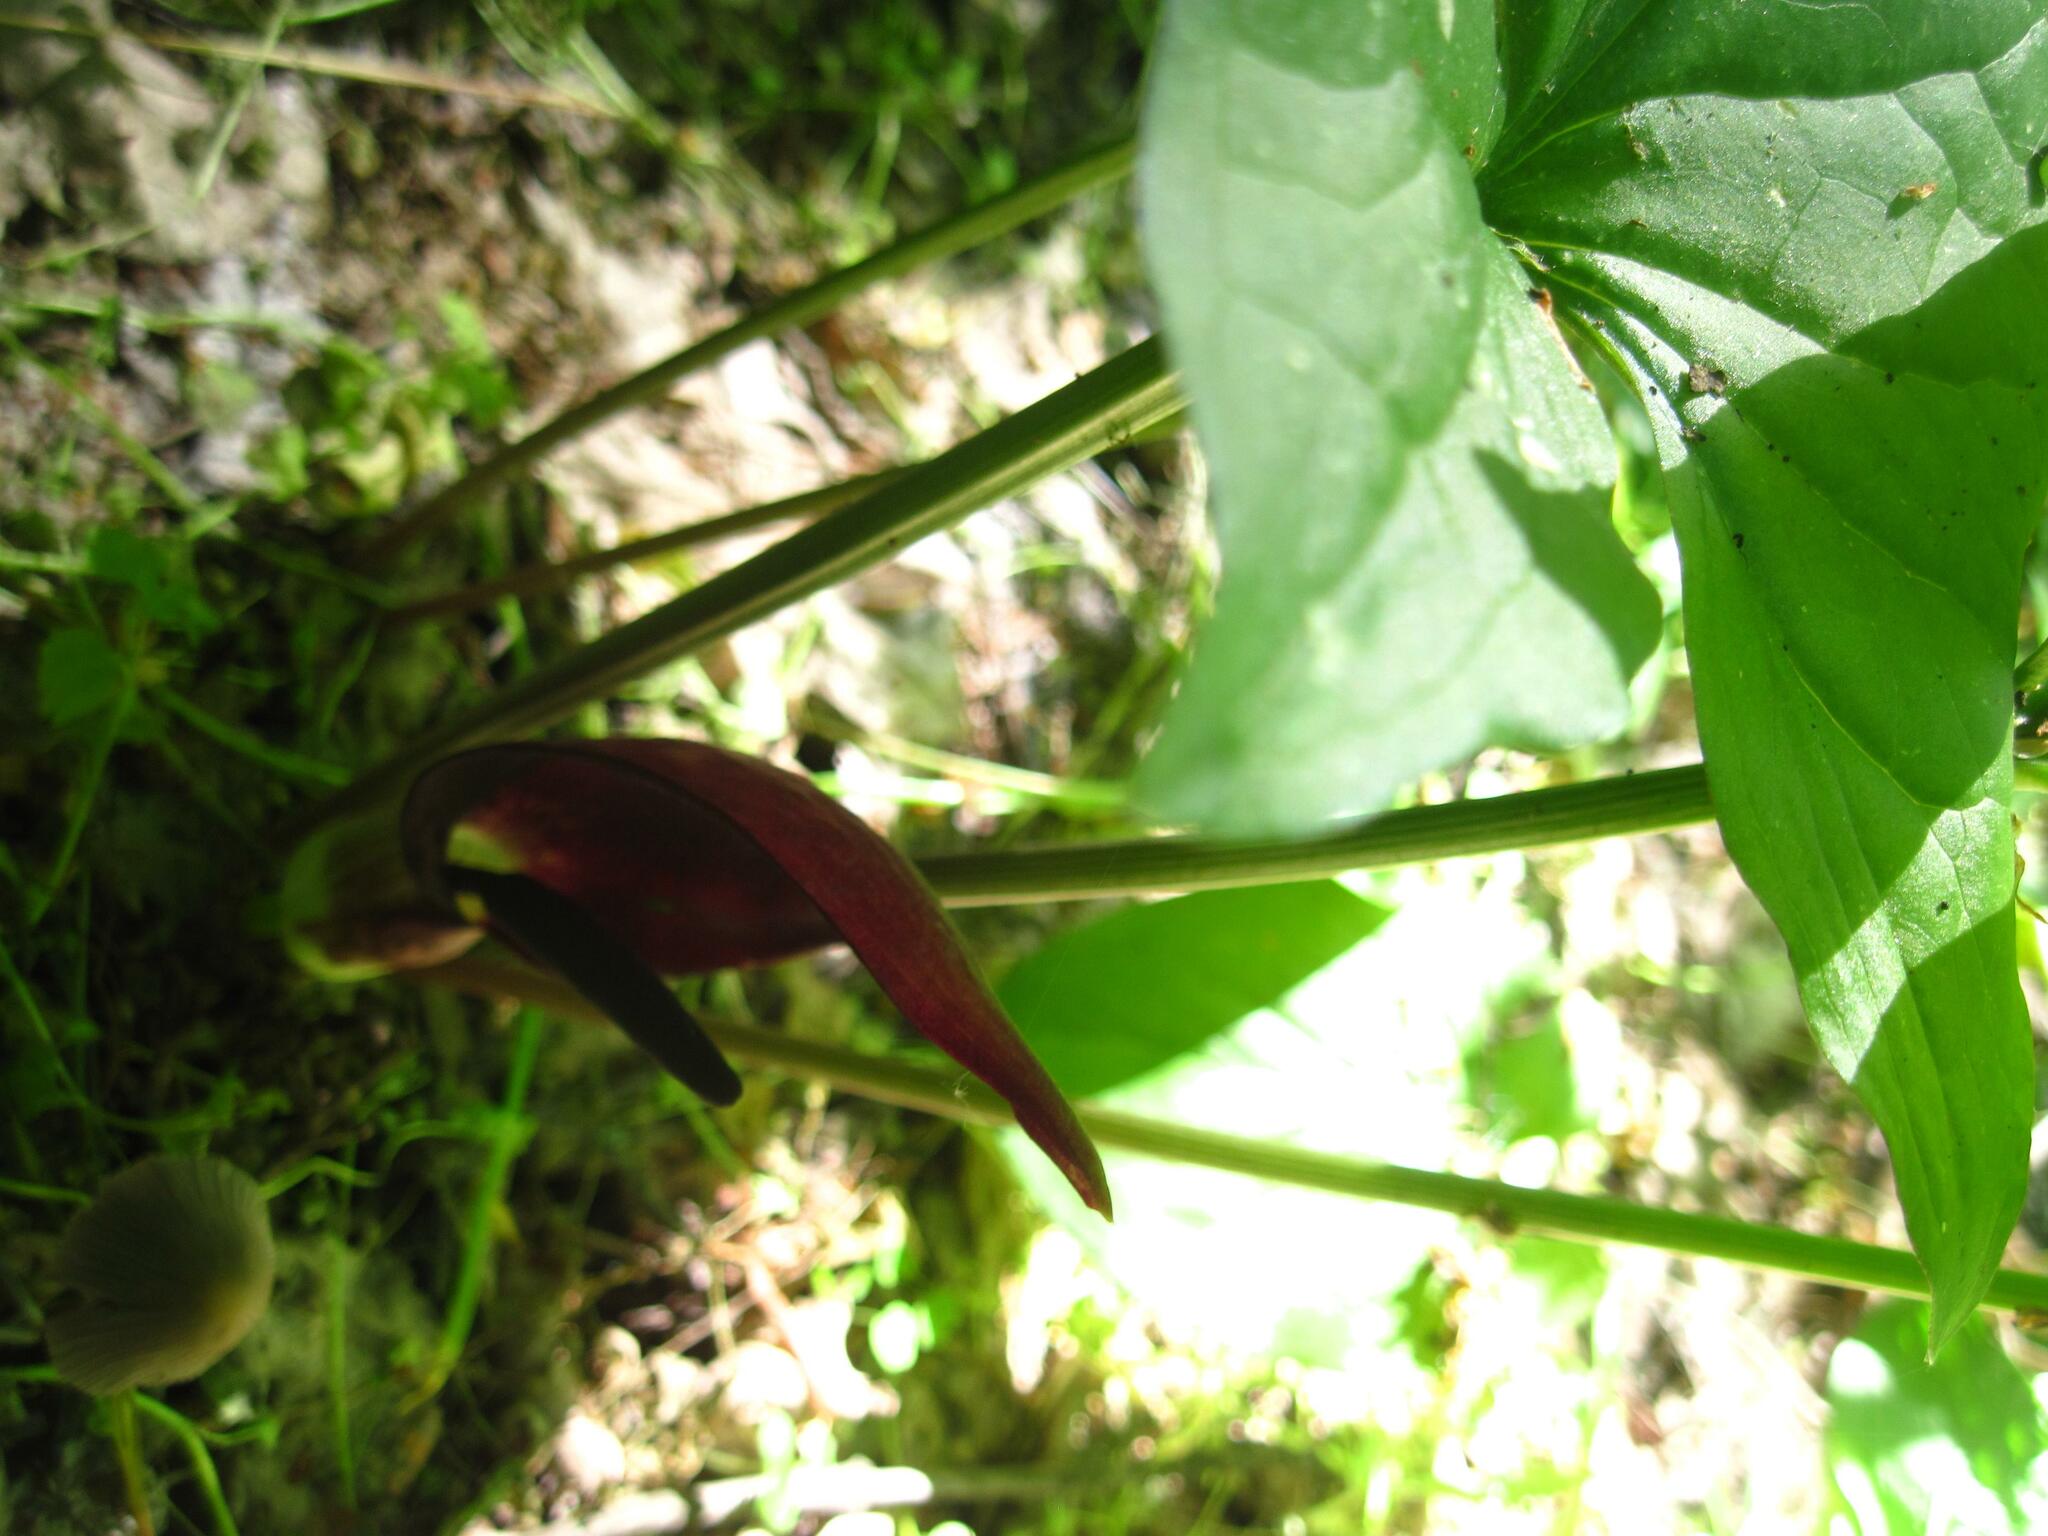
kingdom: Plantae
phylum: Tracheophyta
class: Liliopsida
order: Alismatales
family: Araceae
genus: Arum
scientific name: Arum orientale
